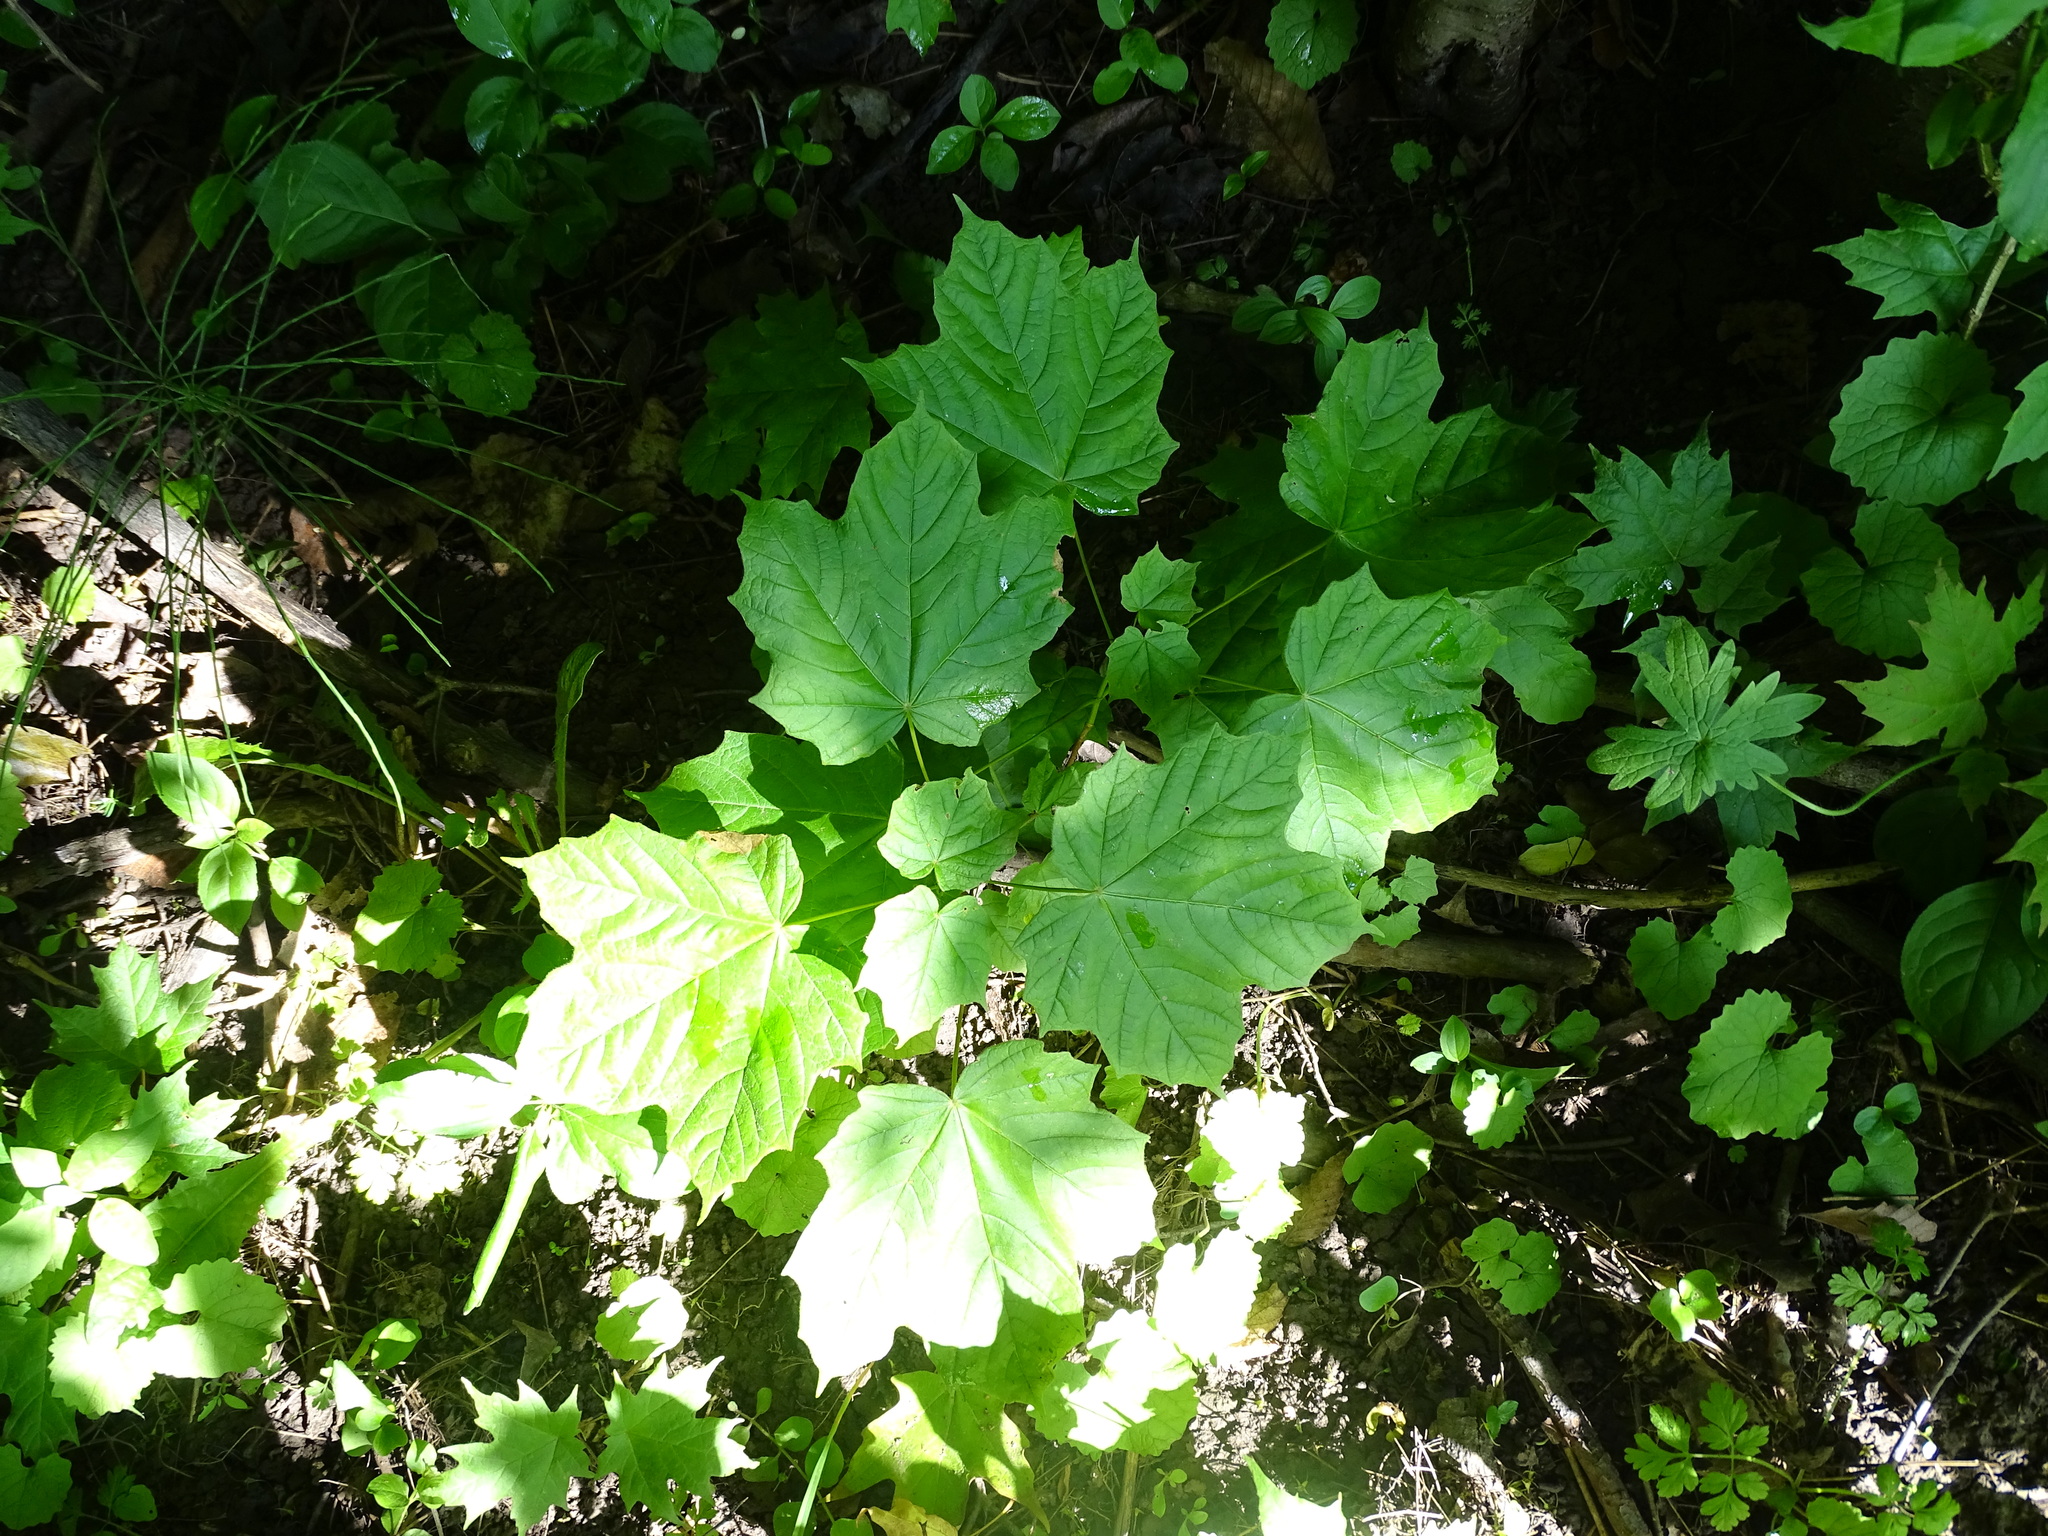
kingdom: Plantae
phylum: Tracheophyta
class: Magnoliopsida
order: Sapindales
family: Sapindaceae
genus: Acer
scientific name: Acer nigrum
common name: Black maple
